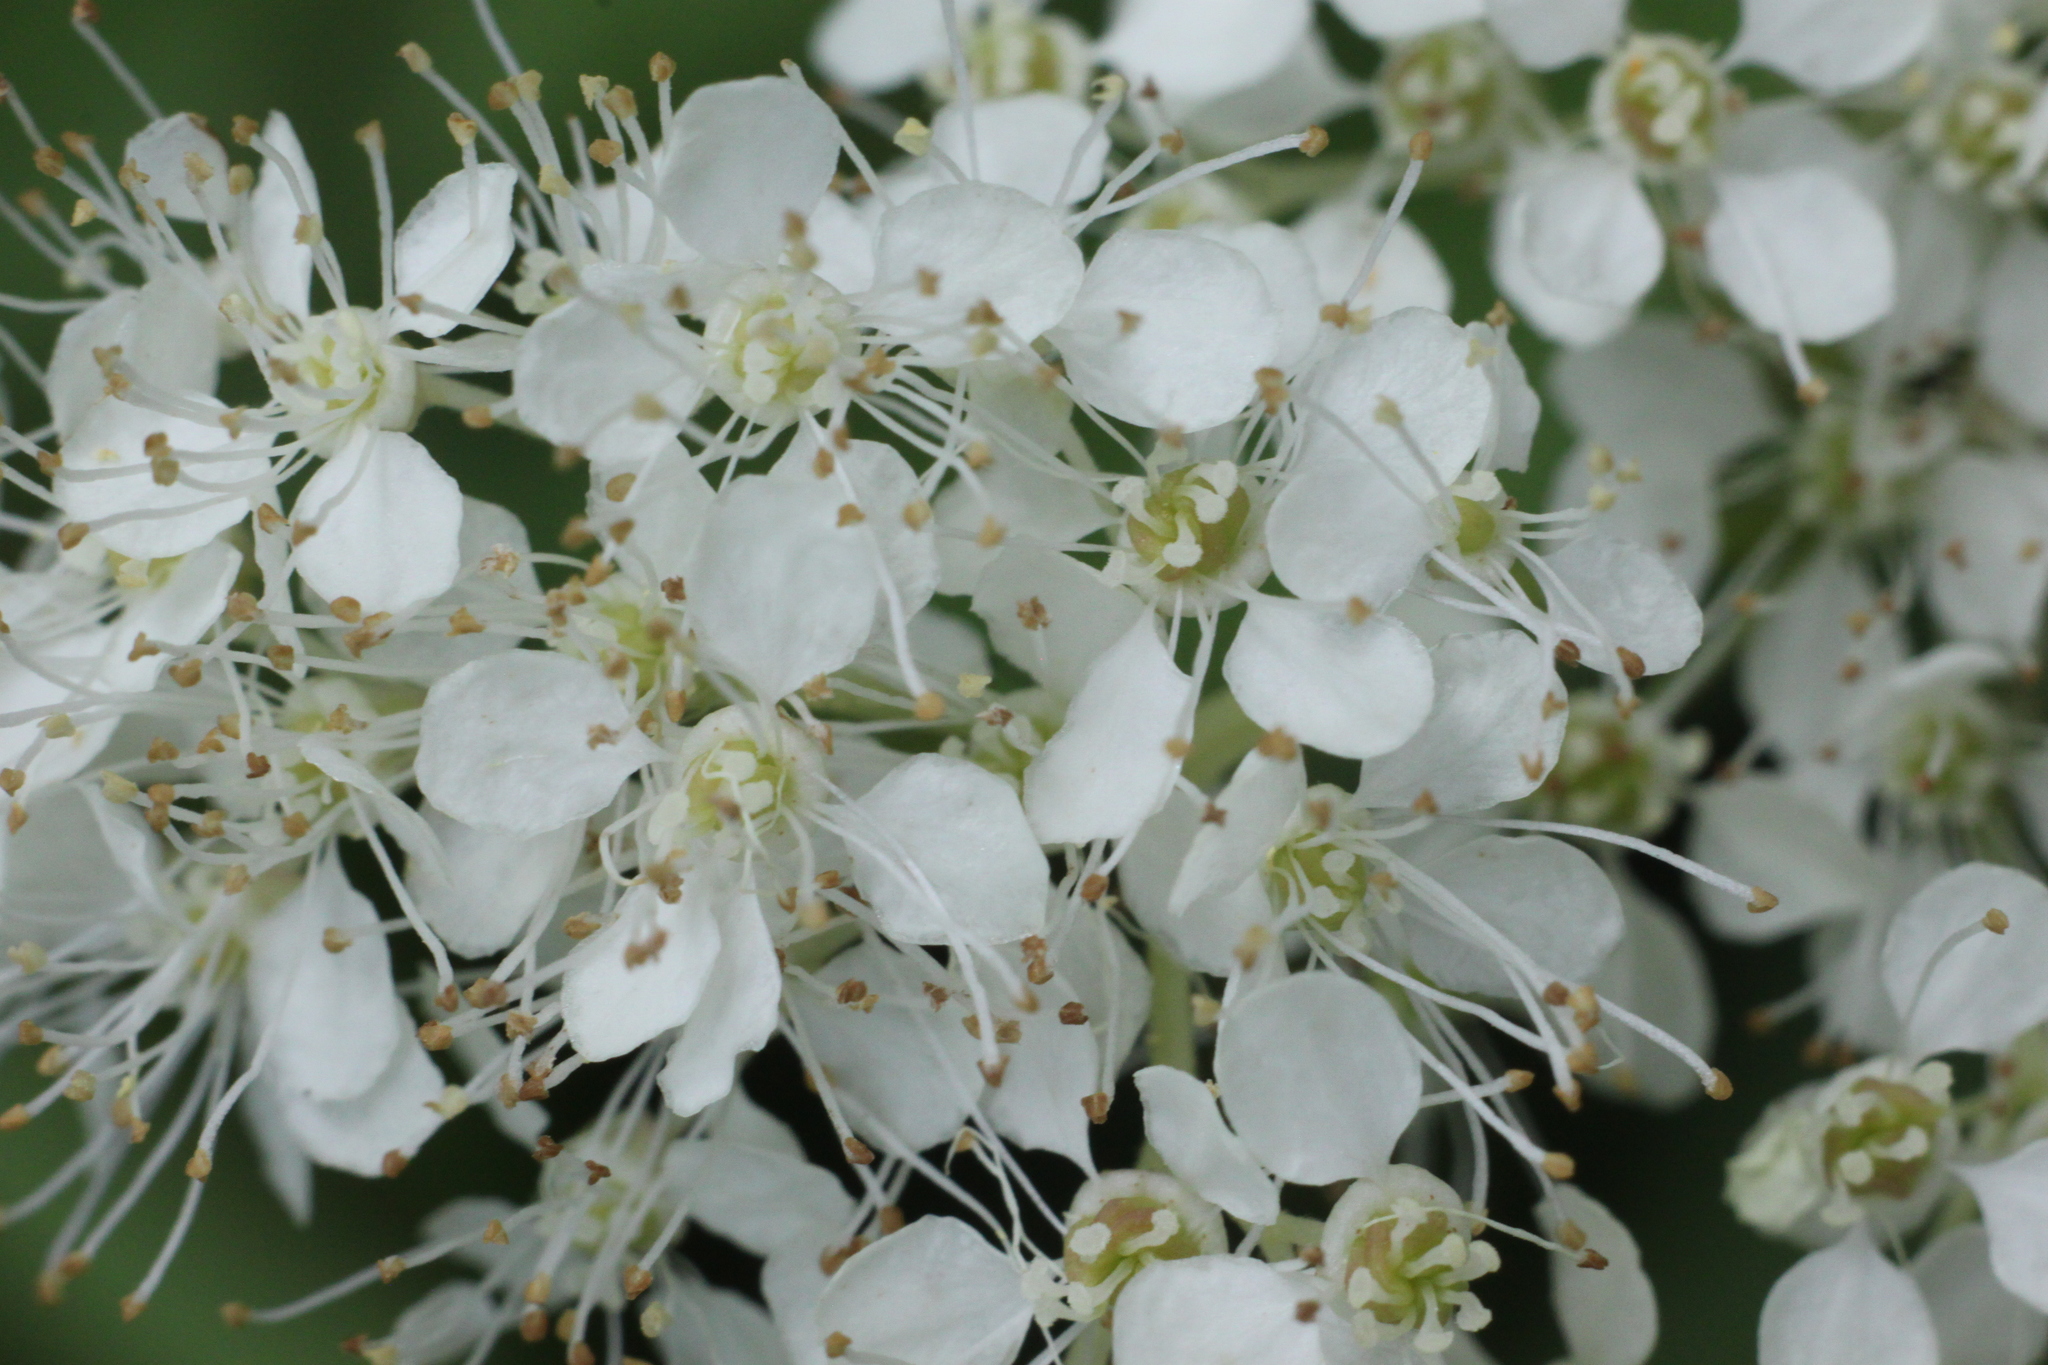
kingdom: Plantae
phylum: Tracheophyta
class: Magnoliopsida
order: Rosales
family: Rosaceae
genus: Filipendula
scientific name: Filipendula ulmaria
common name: Meadowsweet
